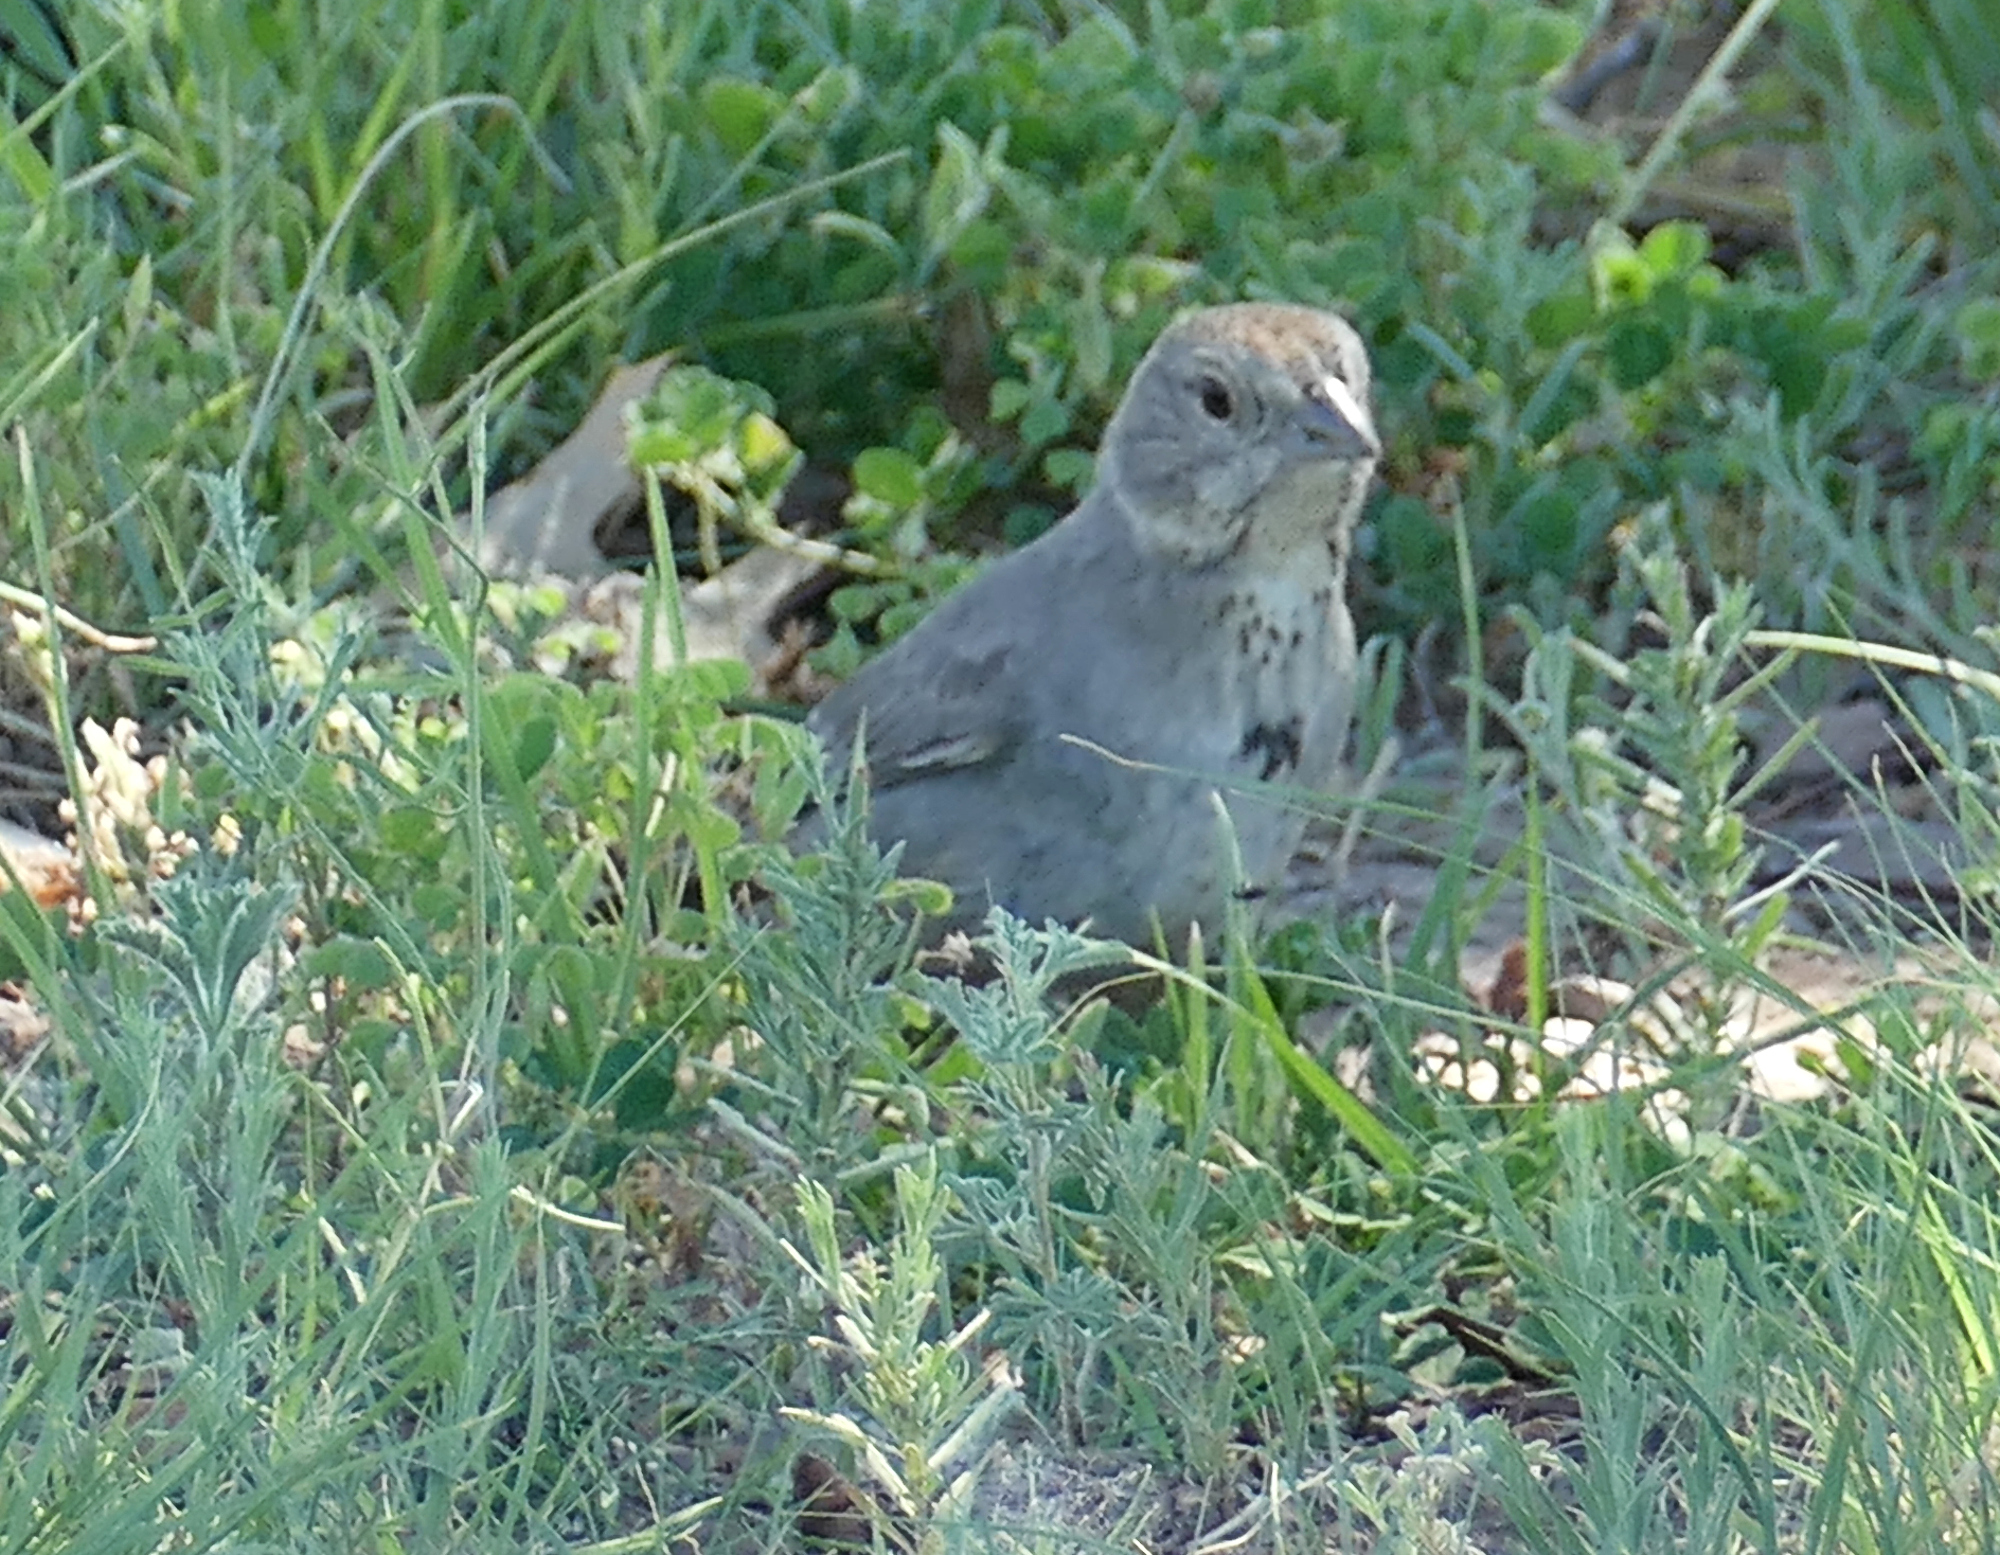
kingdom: Animalia
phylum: Chordata
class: Aves
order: Passeriformes
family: Passerellidae
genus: Melozone
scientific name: Melozone fusca
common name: Canyon towhee
